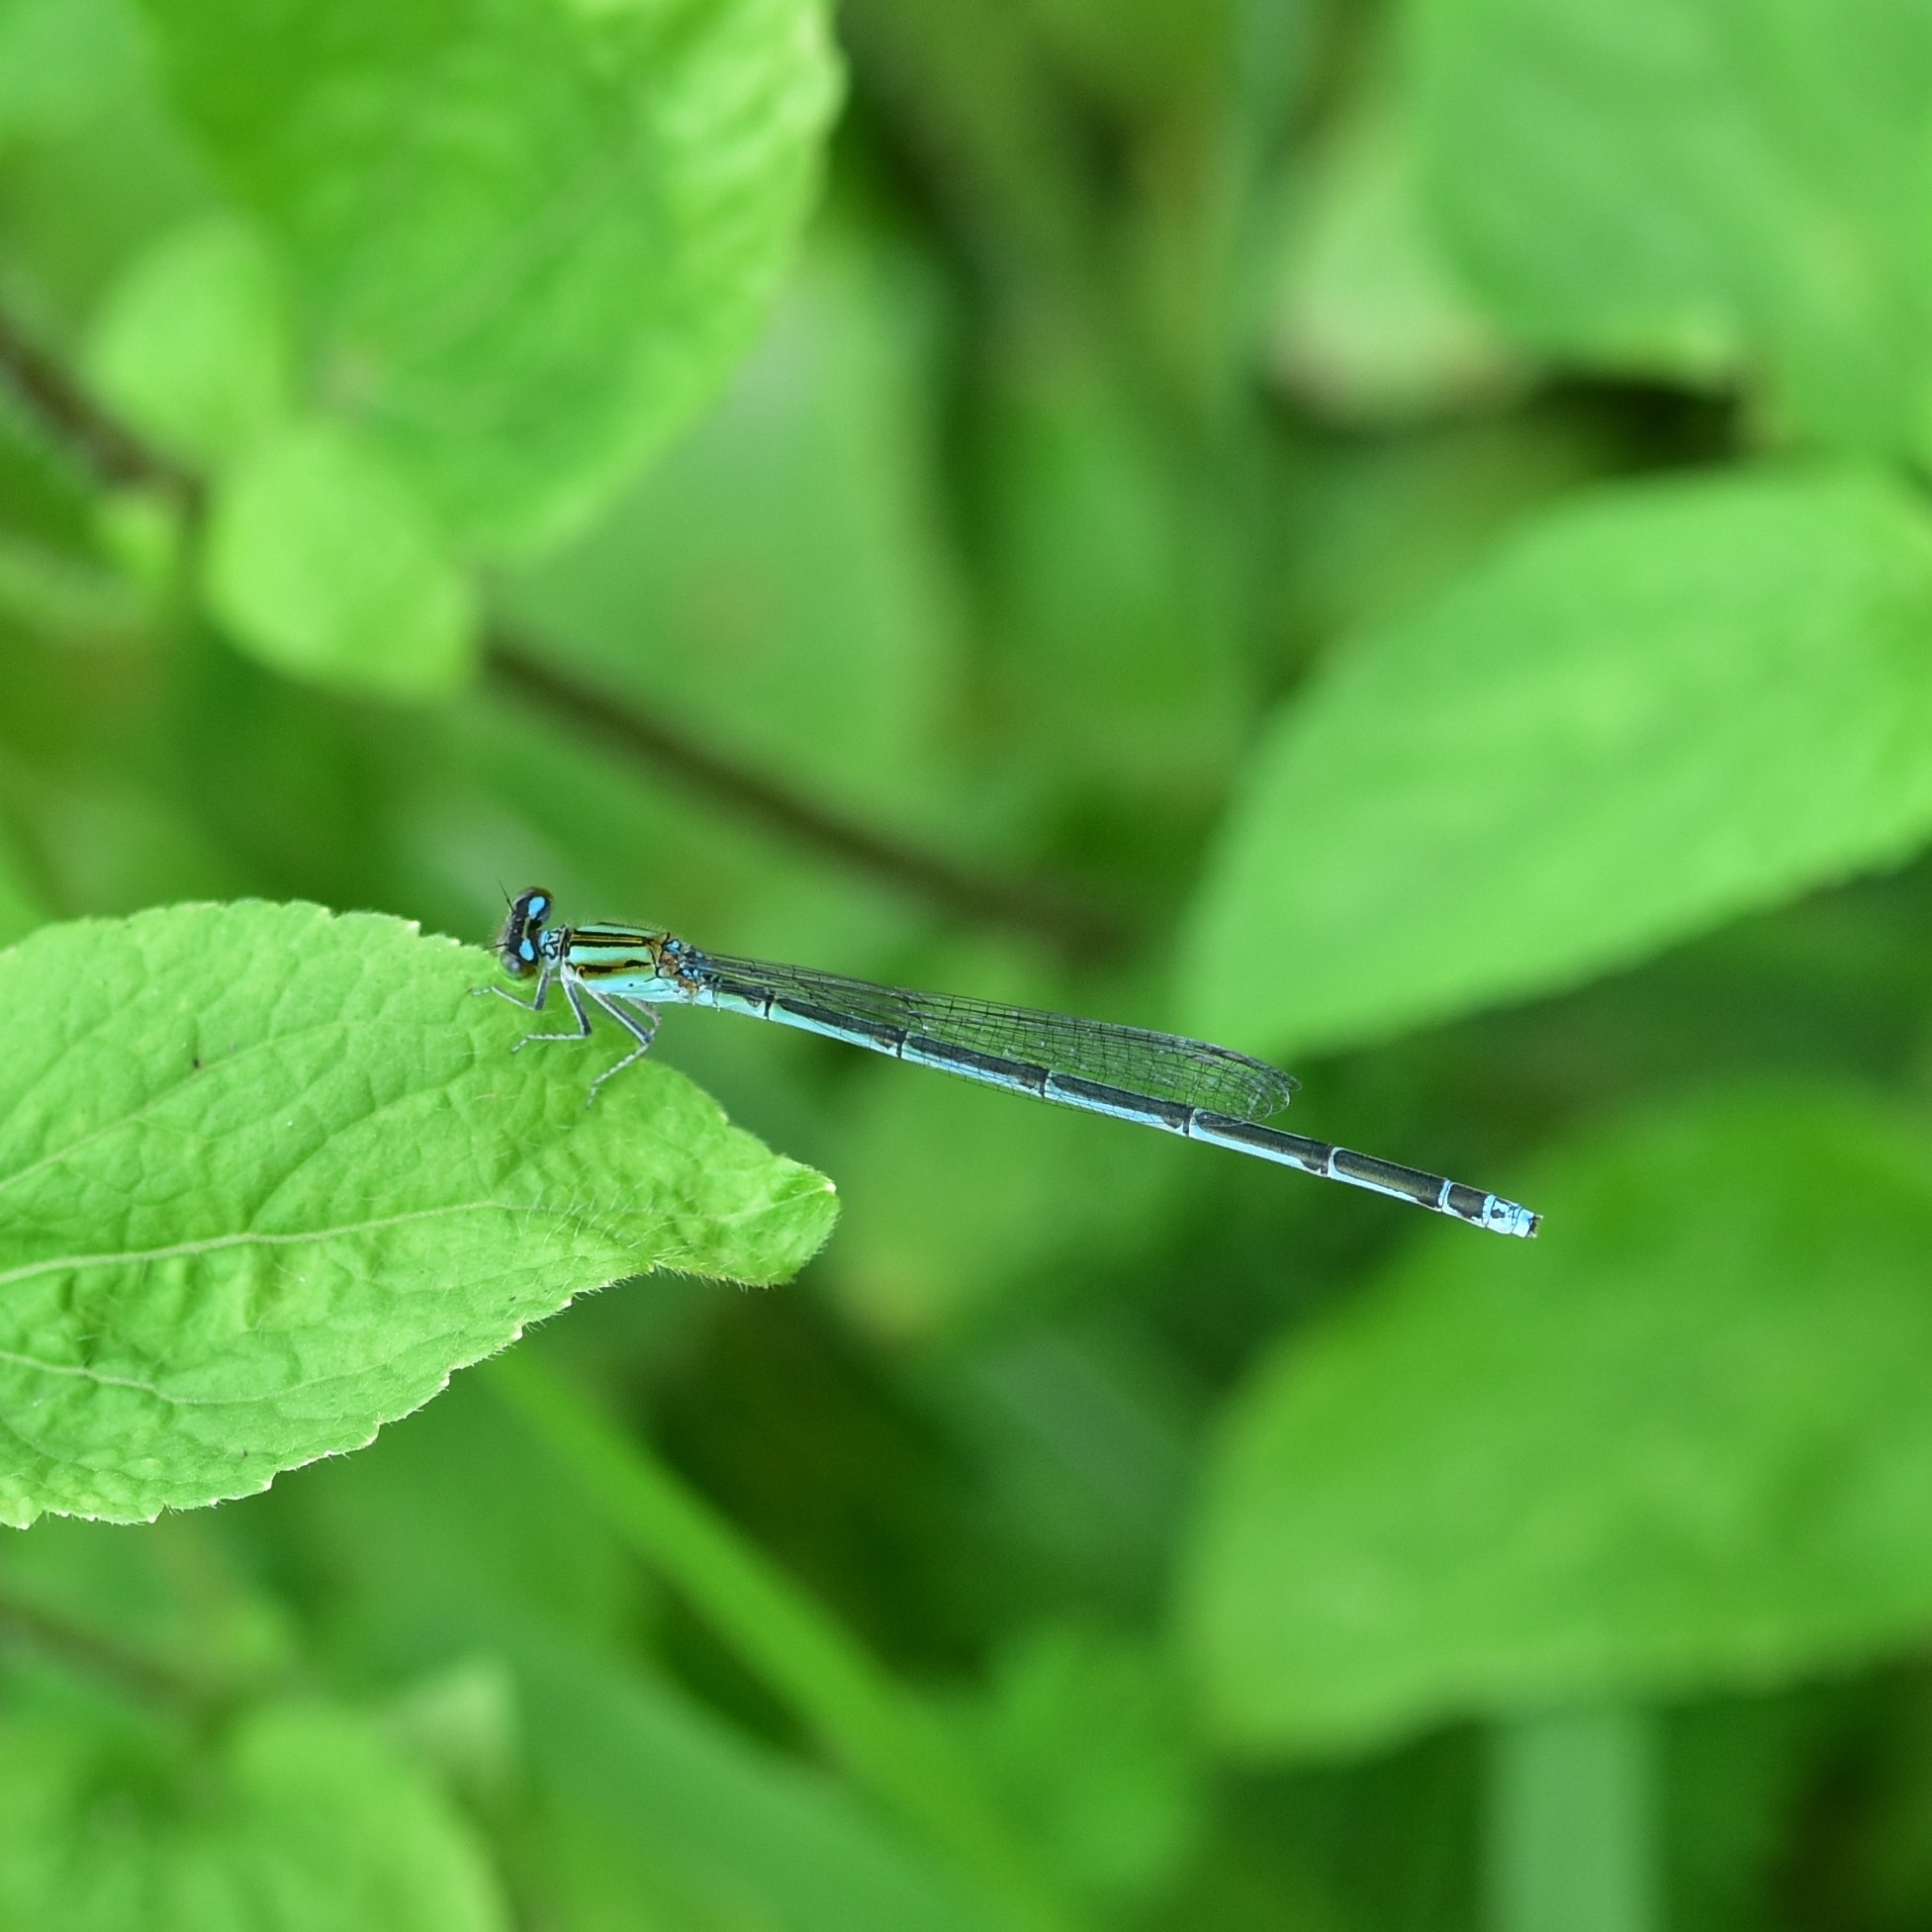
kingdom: Animalia
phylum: Arthropoda
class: Insecta
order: Odonata
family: Coenagrionidae
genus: Pseudagrion
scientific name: Pseudagrion australasiae
